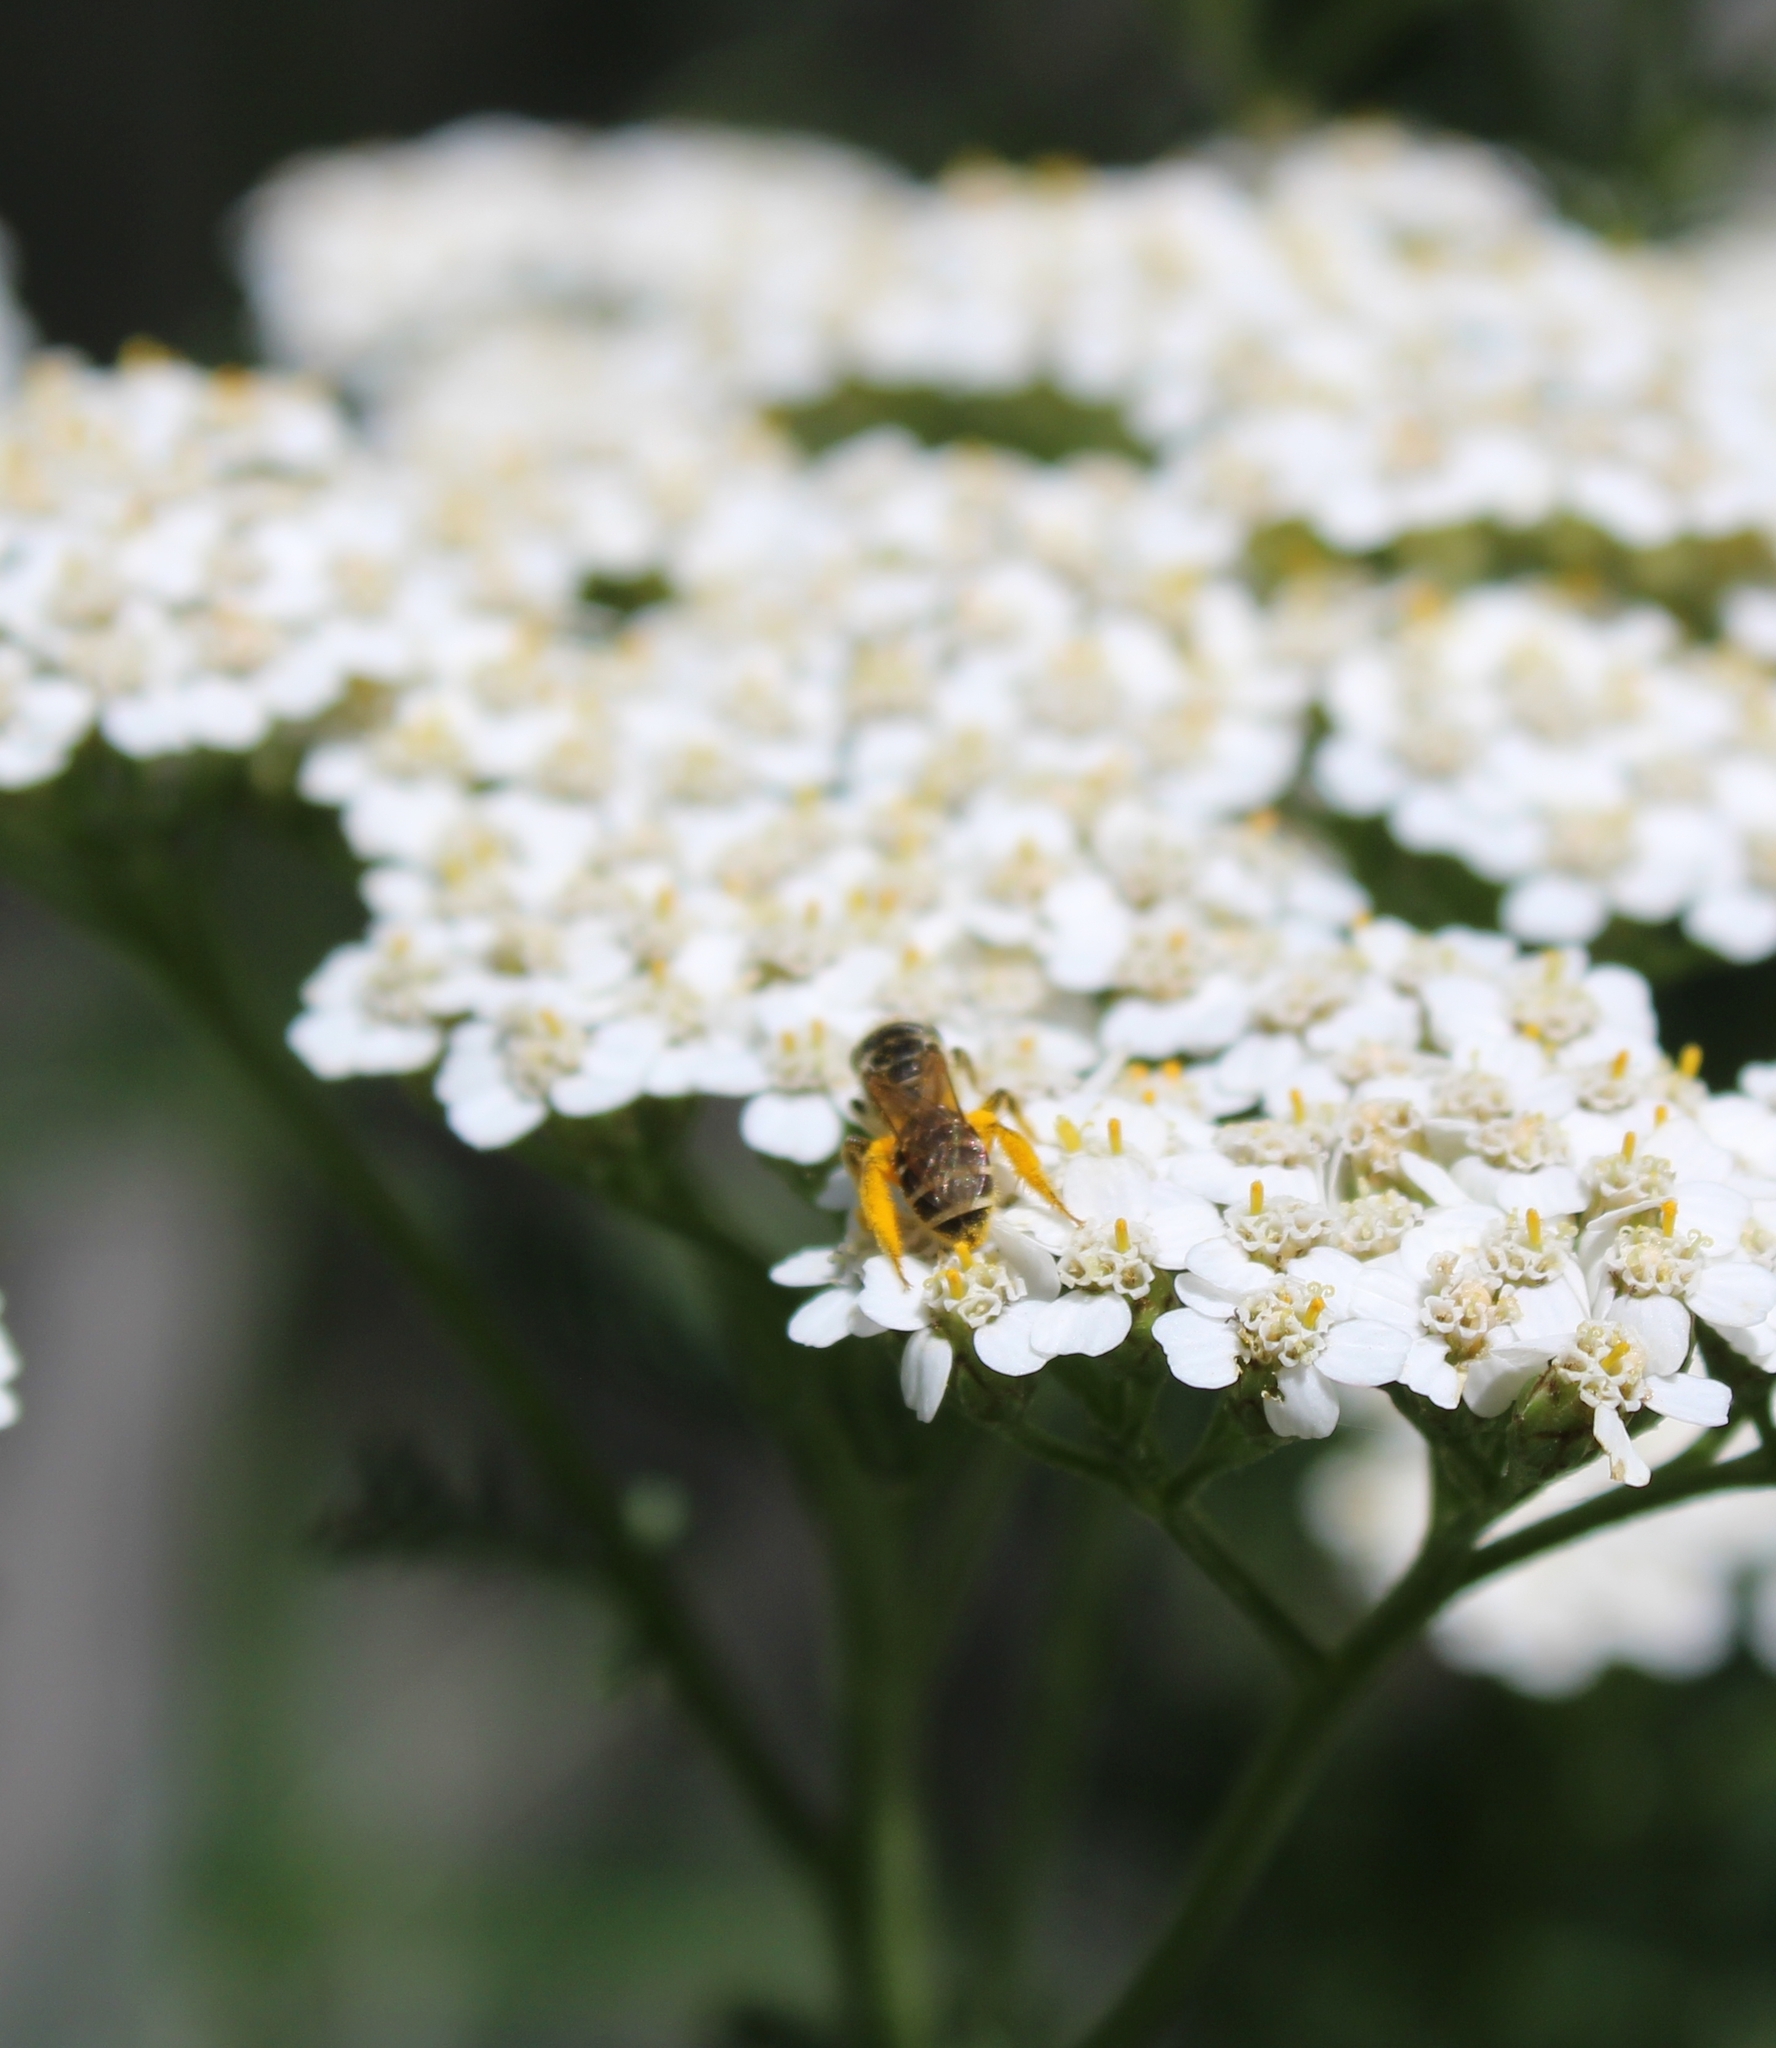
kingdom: Animalia
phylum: Arthropoda
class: Insecta
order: Hymenoptera
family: Halictidae
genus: Halictus
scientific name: Halictus ligatus
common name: Ligated furrow bee
